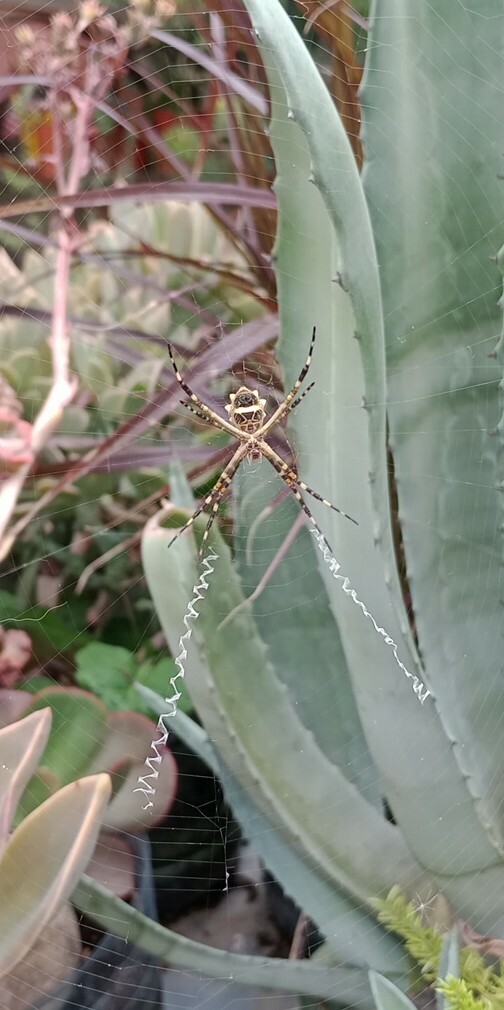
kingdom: Animalia
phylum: Arthropoda
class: Arachnida
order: Araneae
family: Araneidae
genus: Argiope
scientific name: Argiope argentata
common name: Orb weavers
